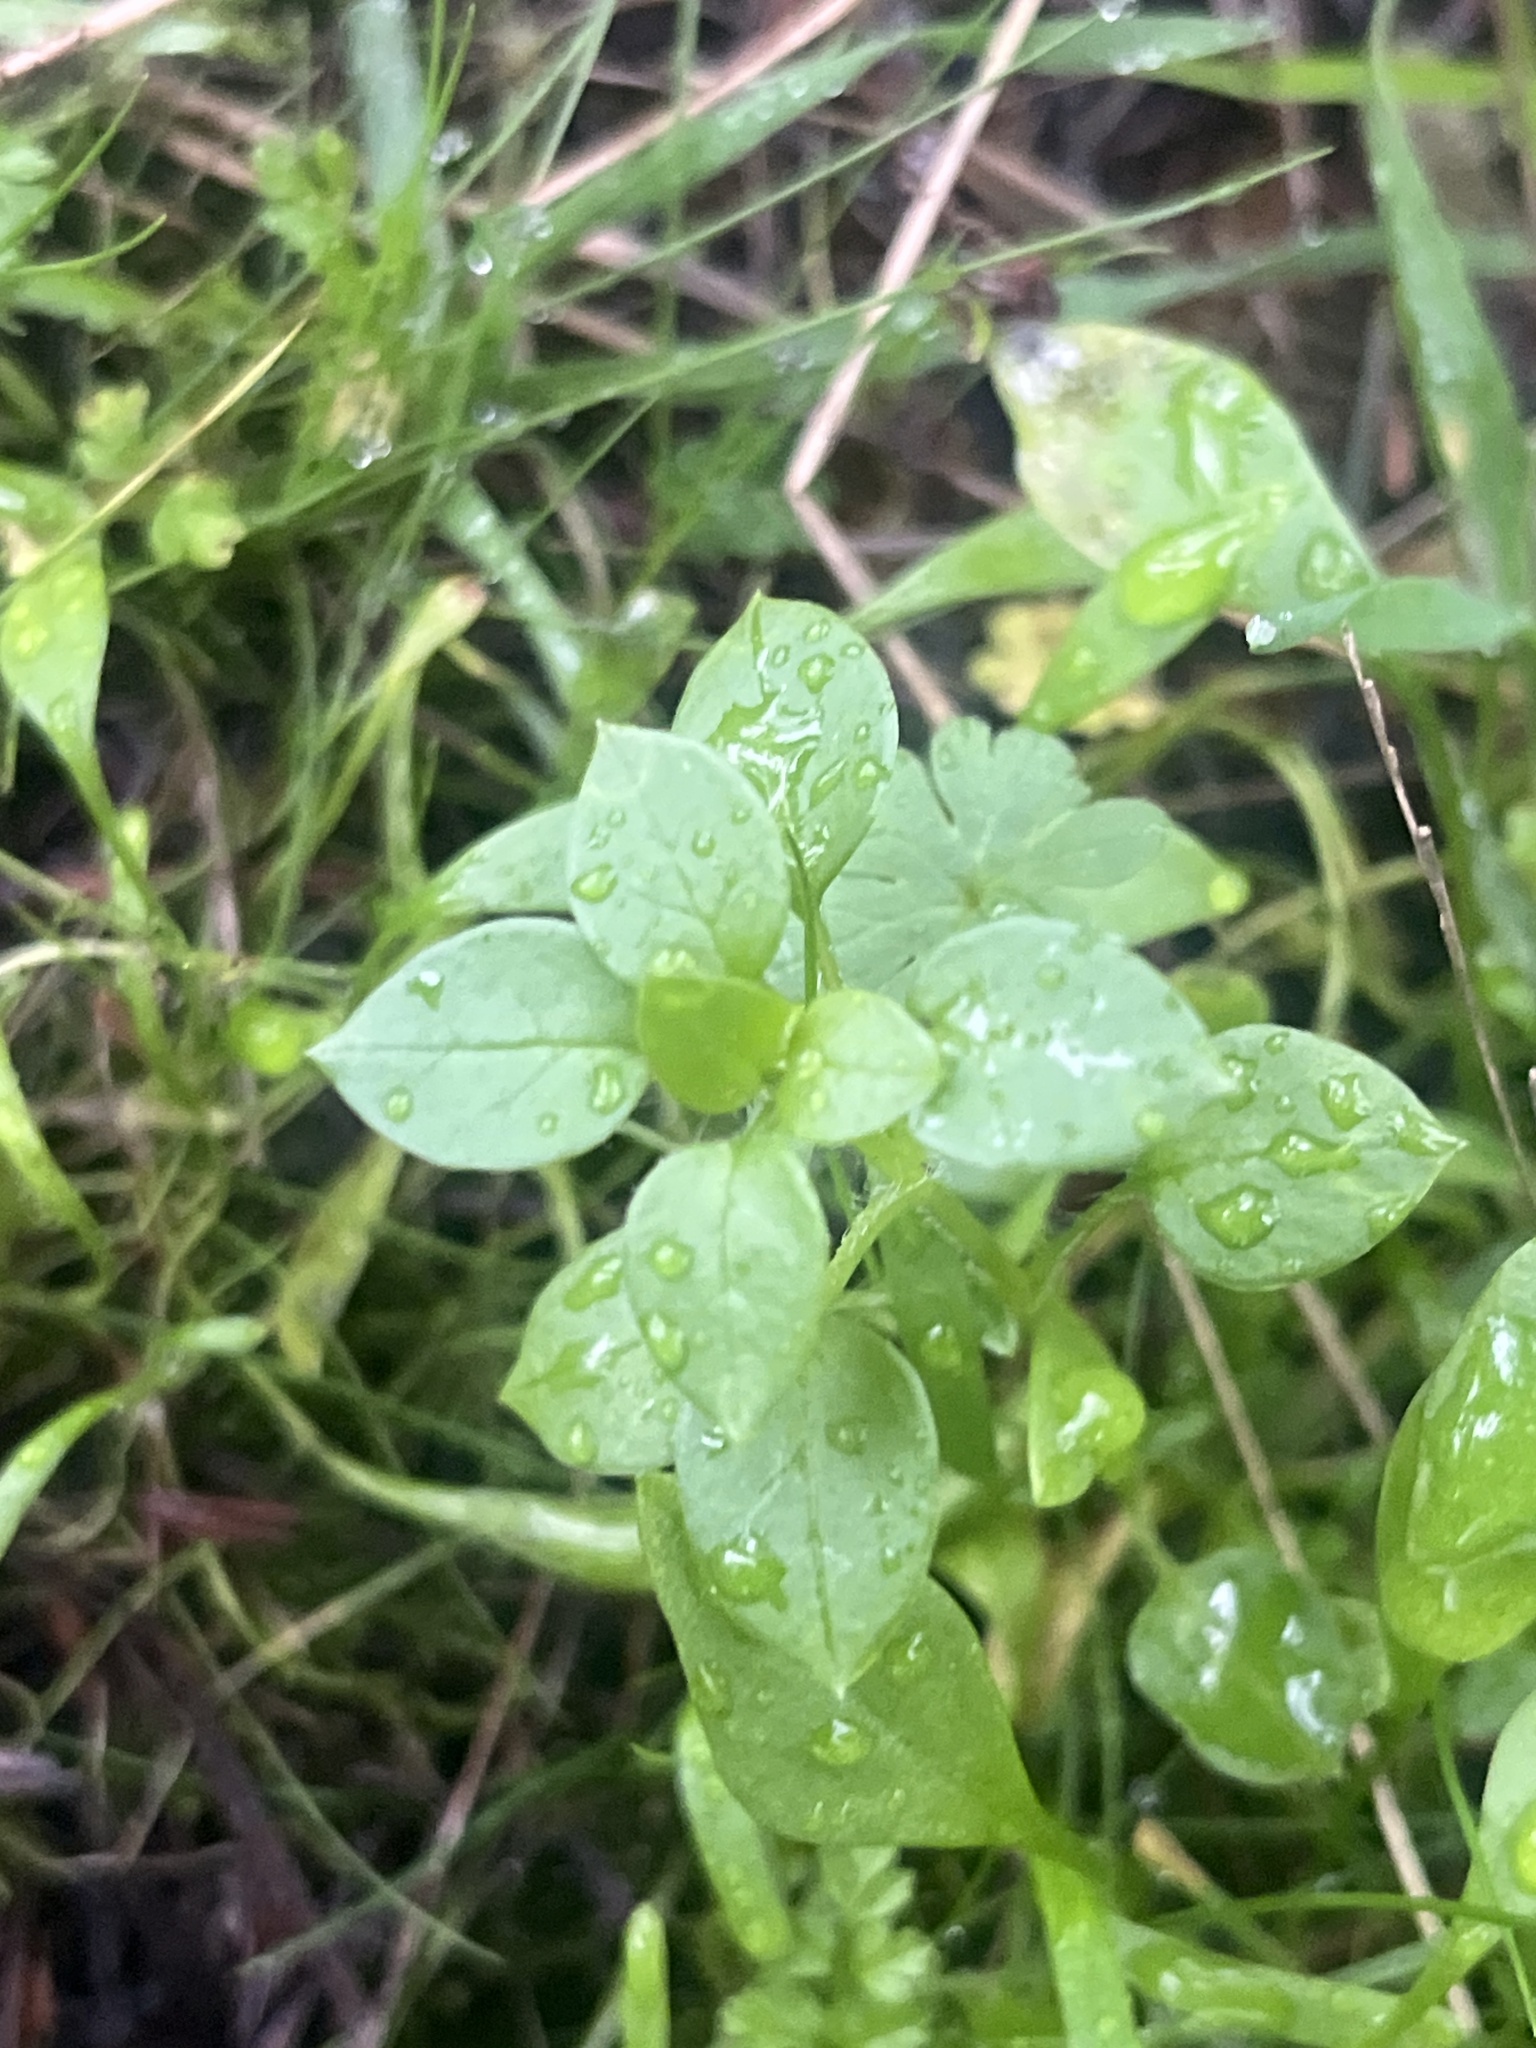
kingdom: Plantae
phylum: Tracheophyta
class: Magnoliopsida
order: Caryophyllales
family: Caryophyllaceae
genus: Stellaria
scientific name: Stellaria media
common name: Common chickweed
